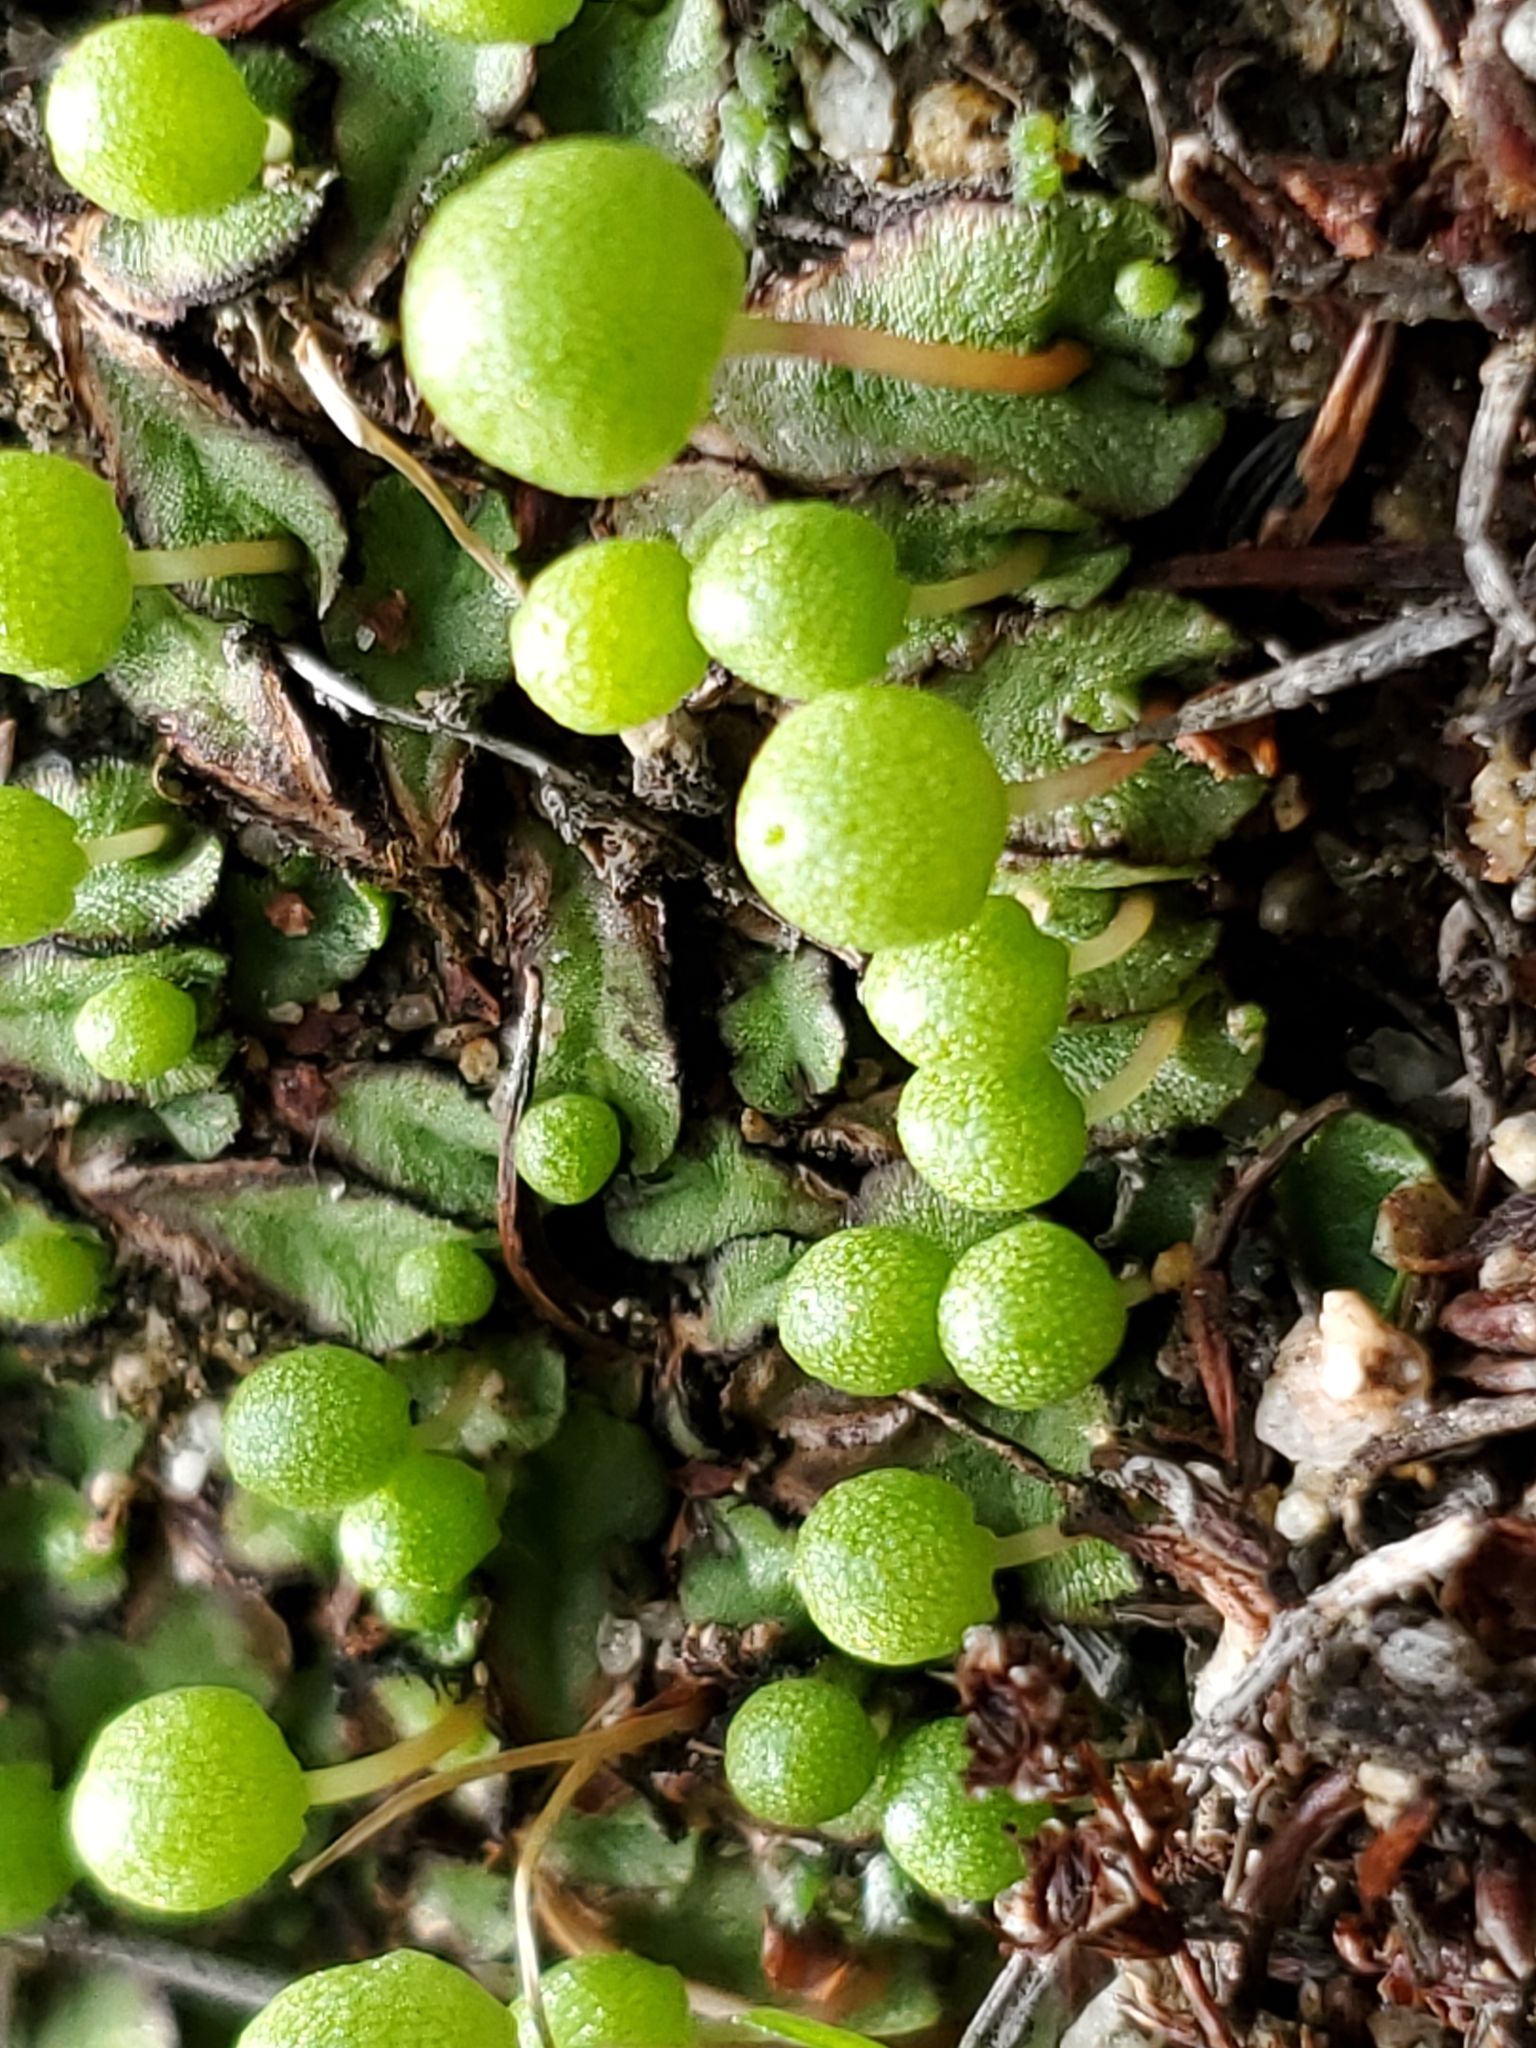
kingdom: Plantae
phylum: Marchantiophyta
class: Marchantiopsida
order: Marchantiales
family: Aytoniaceae
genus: Asterella
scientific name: Asterella palmeri
